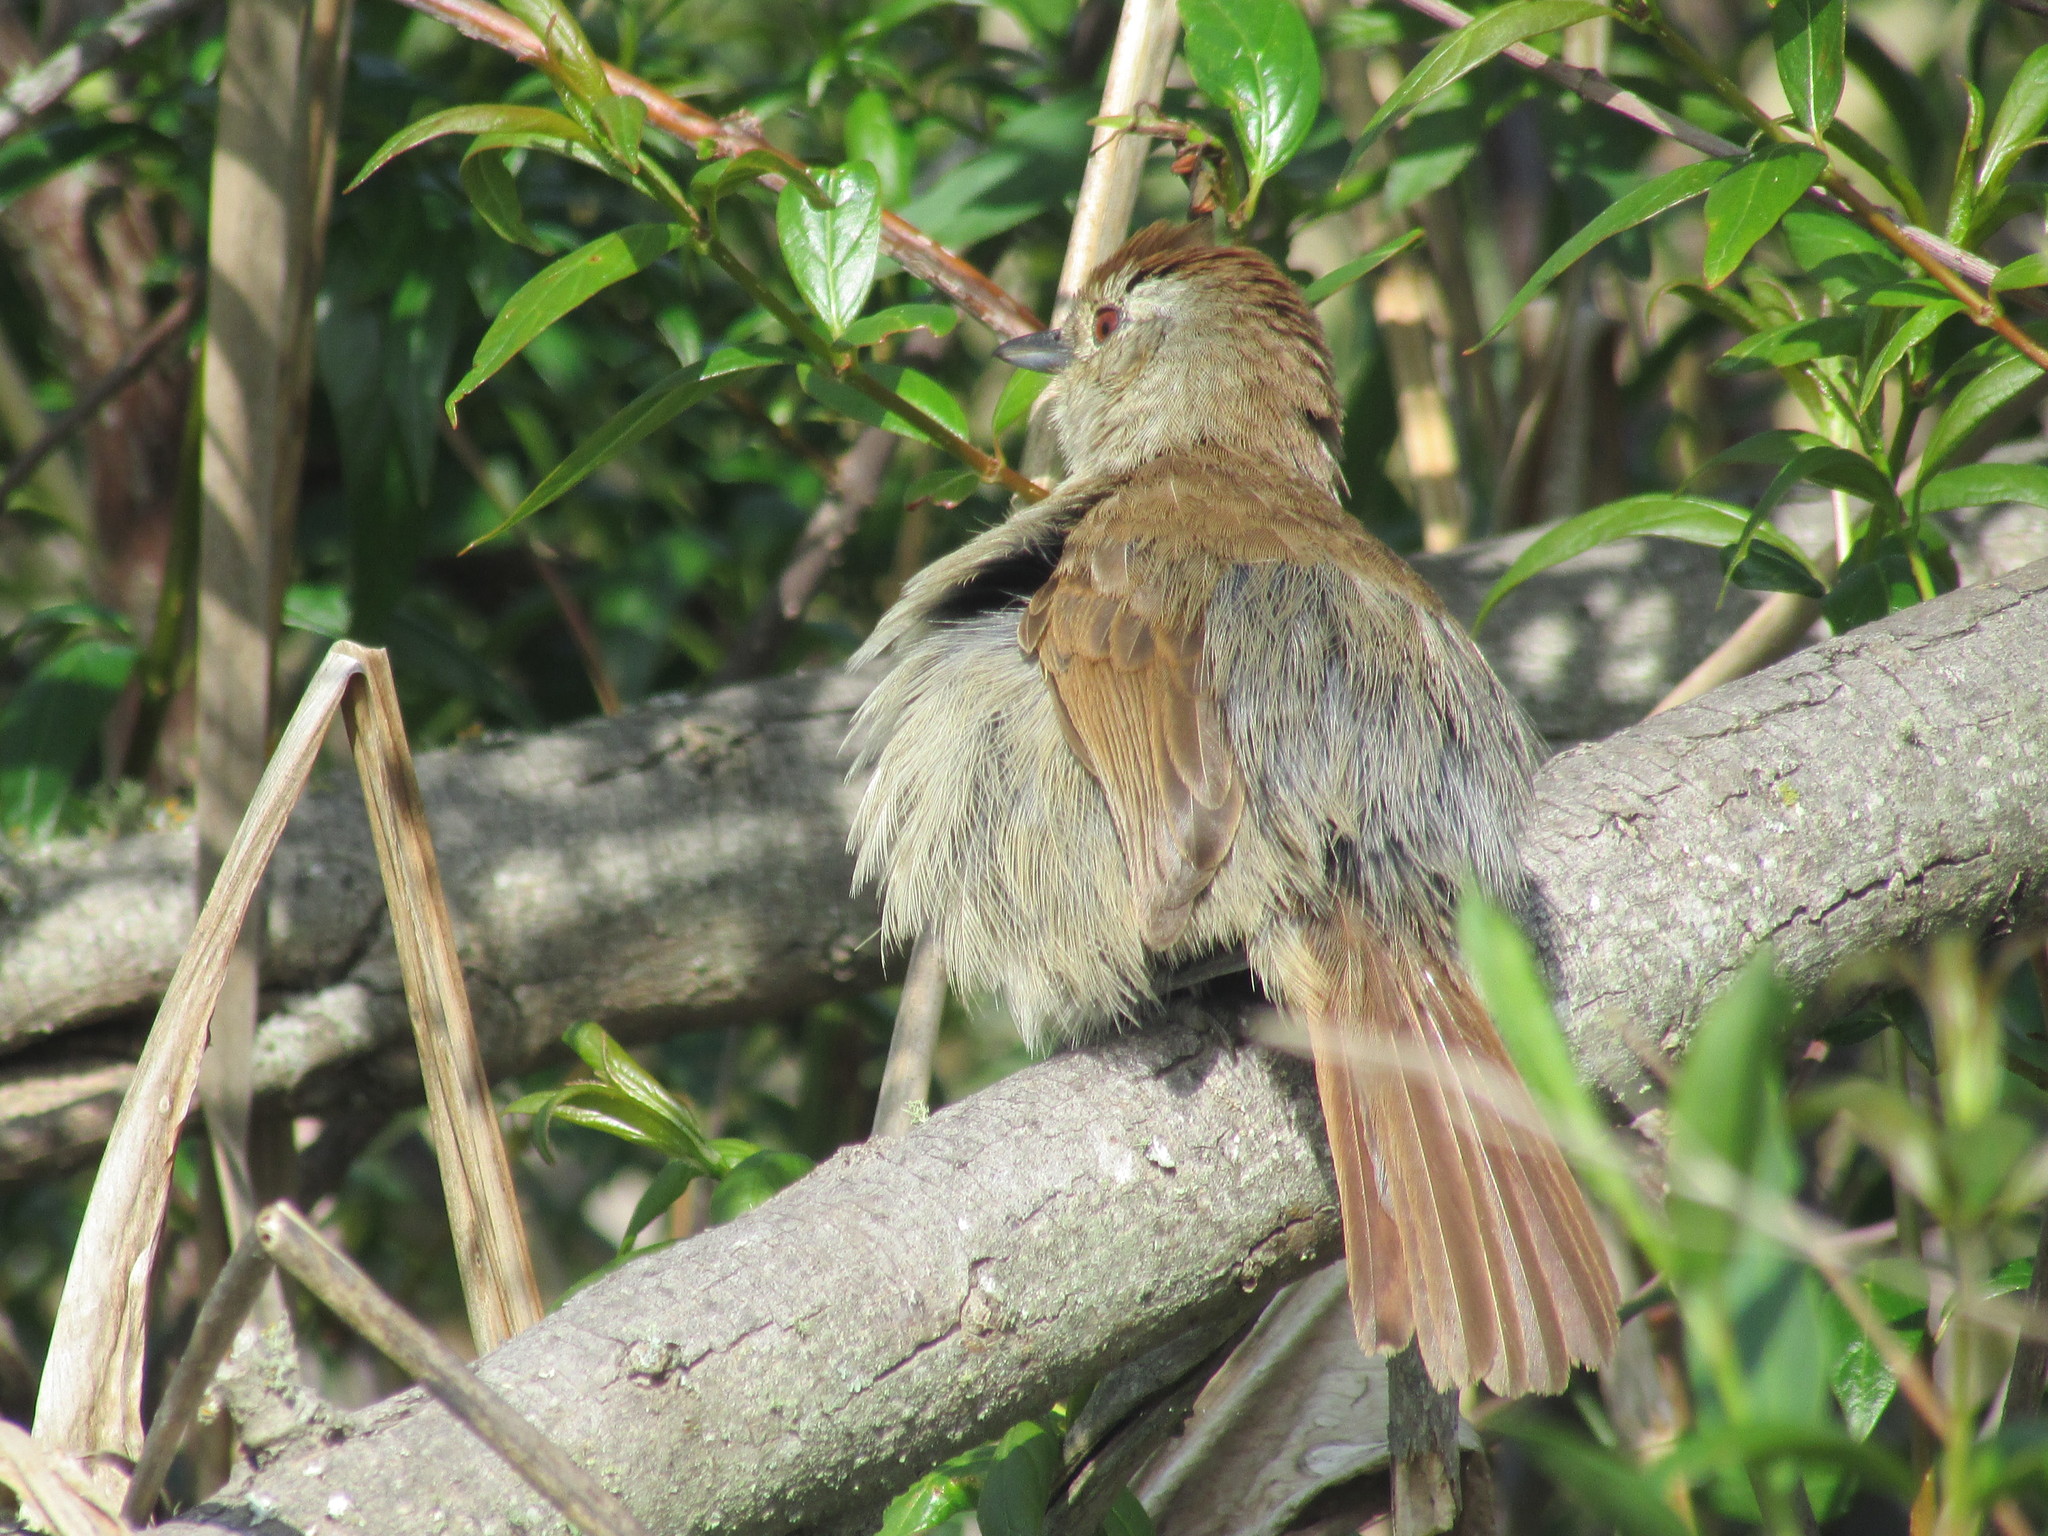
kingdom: Animalia
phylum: Chordata
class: Aves
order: Passeriformes
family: Thamnophilidae
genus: Thamnophilus
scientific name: Thamnophilus ruficapillus
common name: Rufous-capped antshrike
